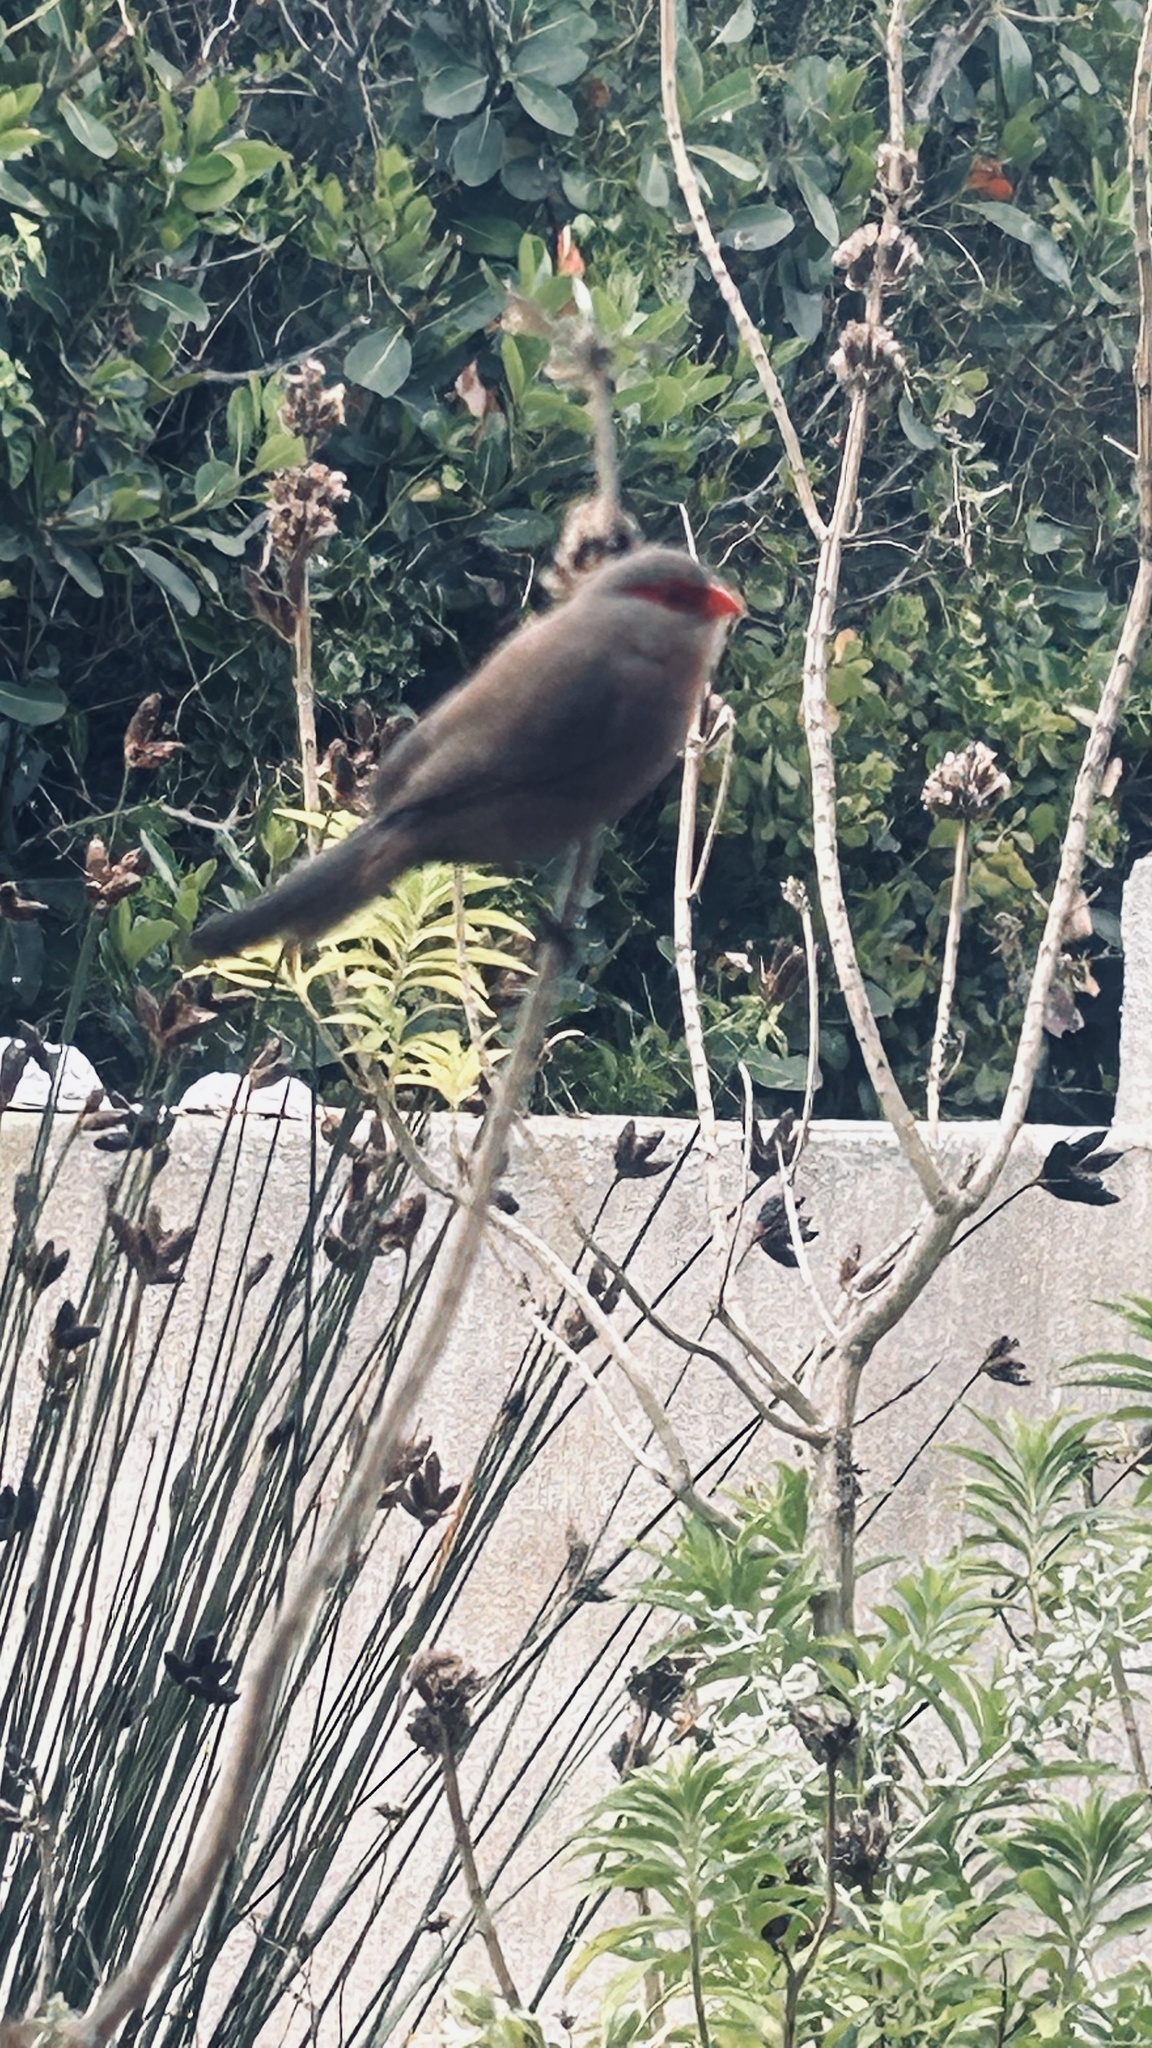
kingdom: Animalia
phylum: Chordata
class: Aves
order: Passeriformes
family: Estrildidae
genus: Estrilda
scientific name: Estrilda astrild
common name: Common waxbill
